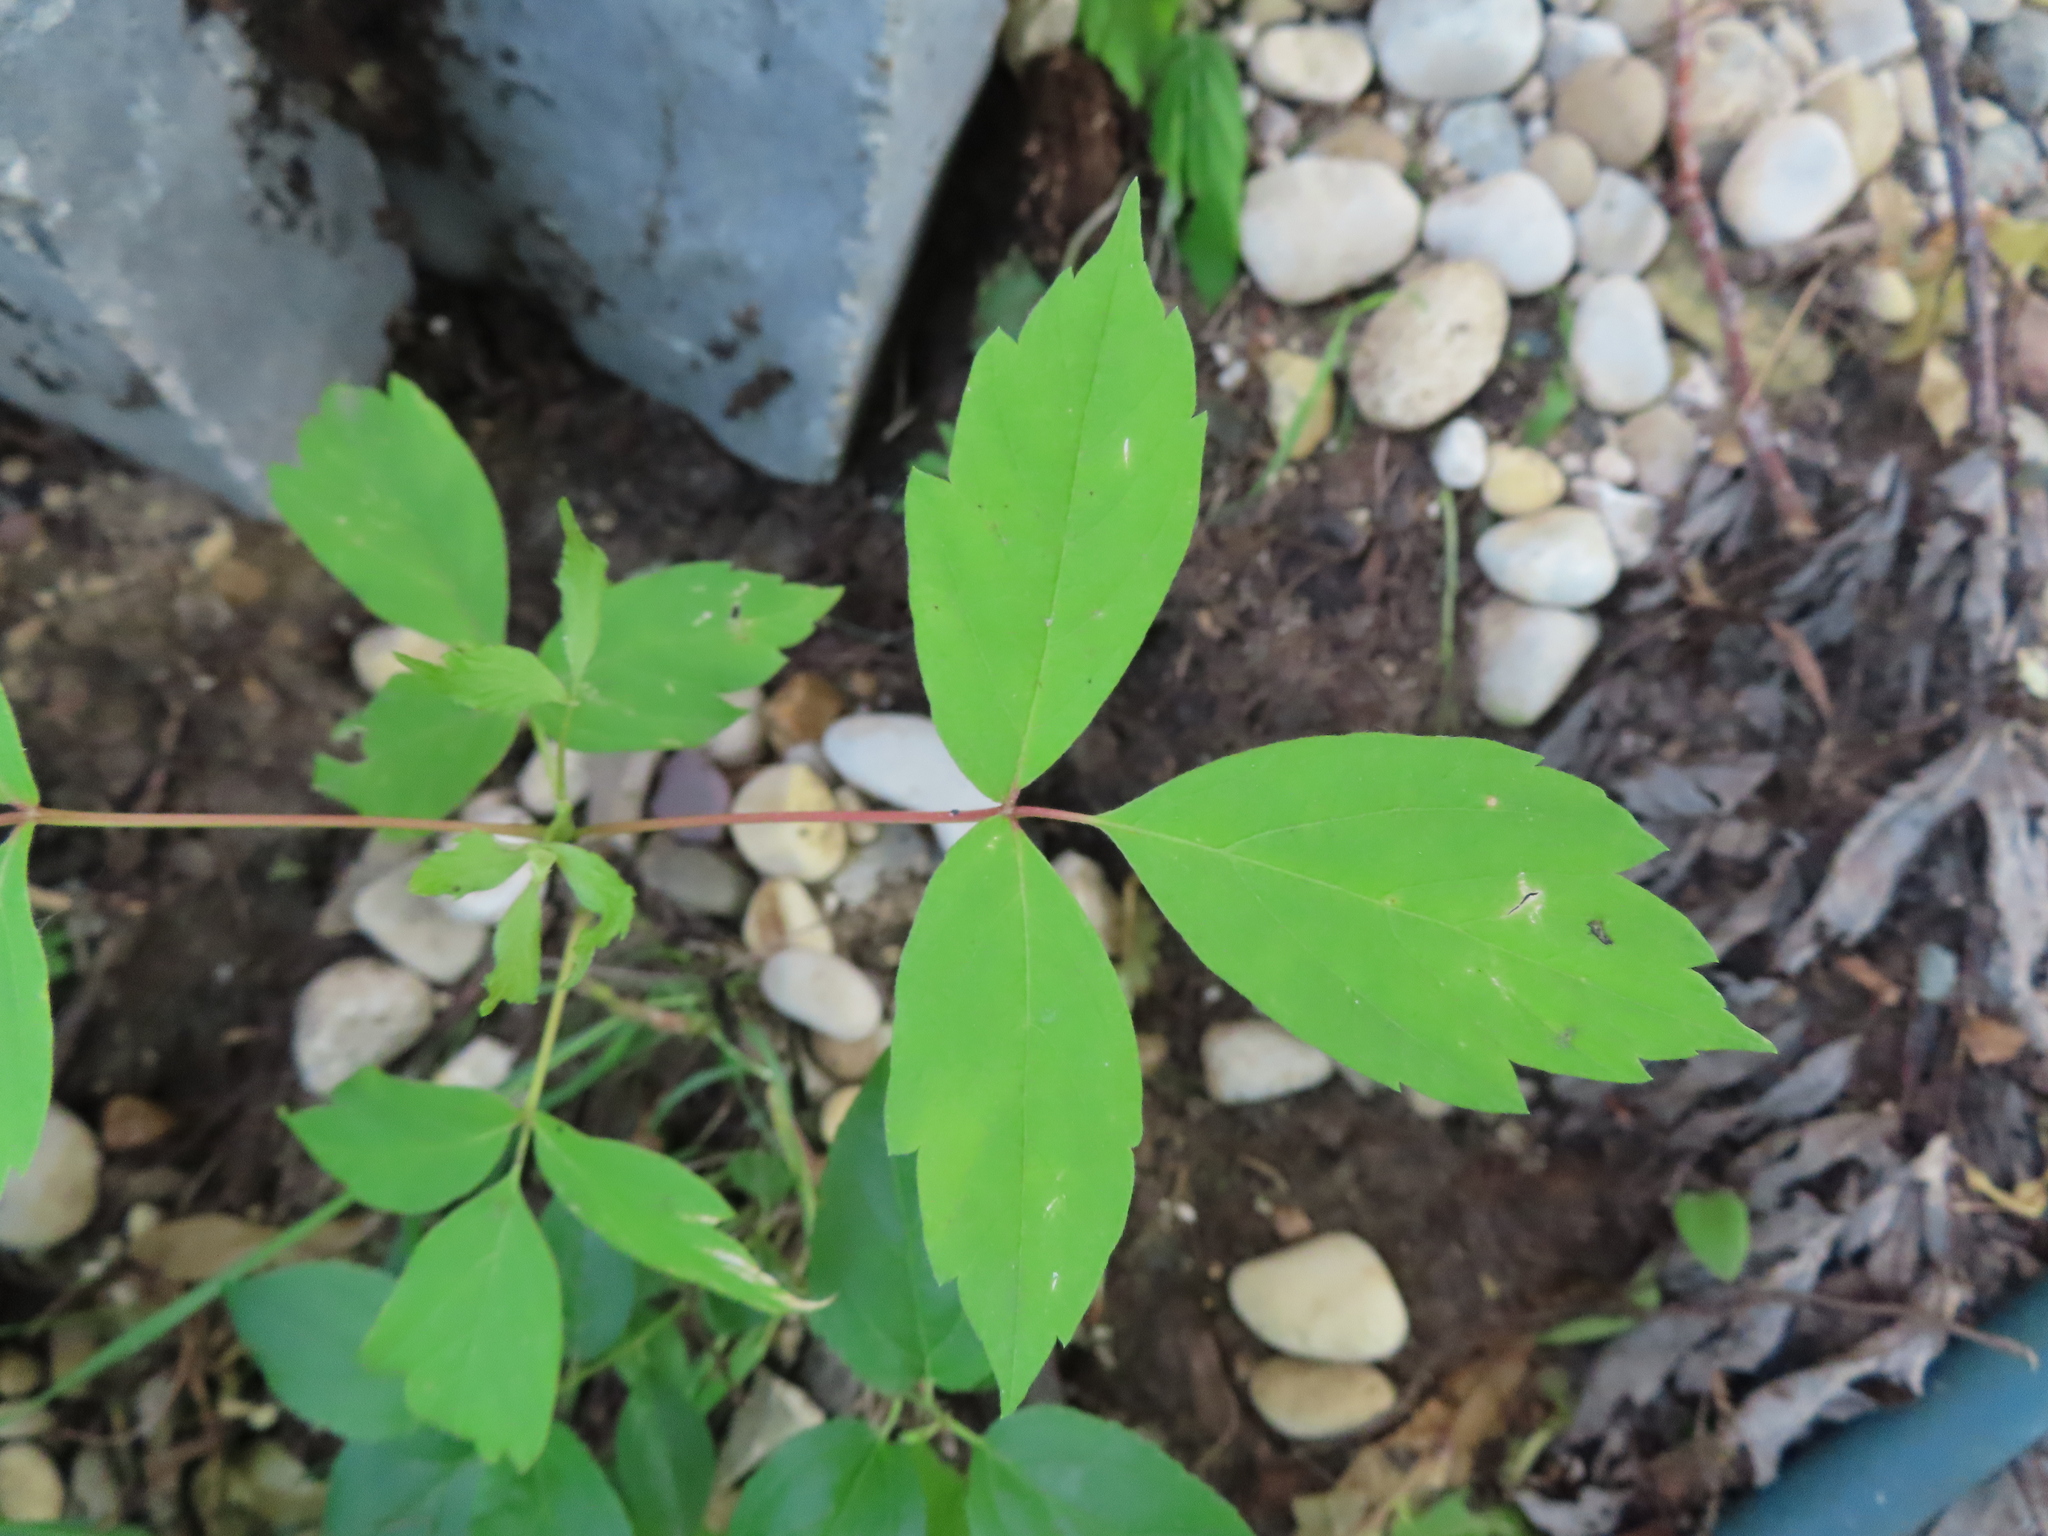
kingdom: Plantae
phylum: Tracheophyta
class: Magnoliopsida
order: Sapindales
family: Sapindaceae
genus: Acer
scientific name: Acer negundo
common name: Ashleaf maple
